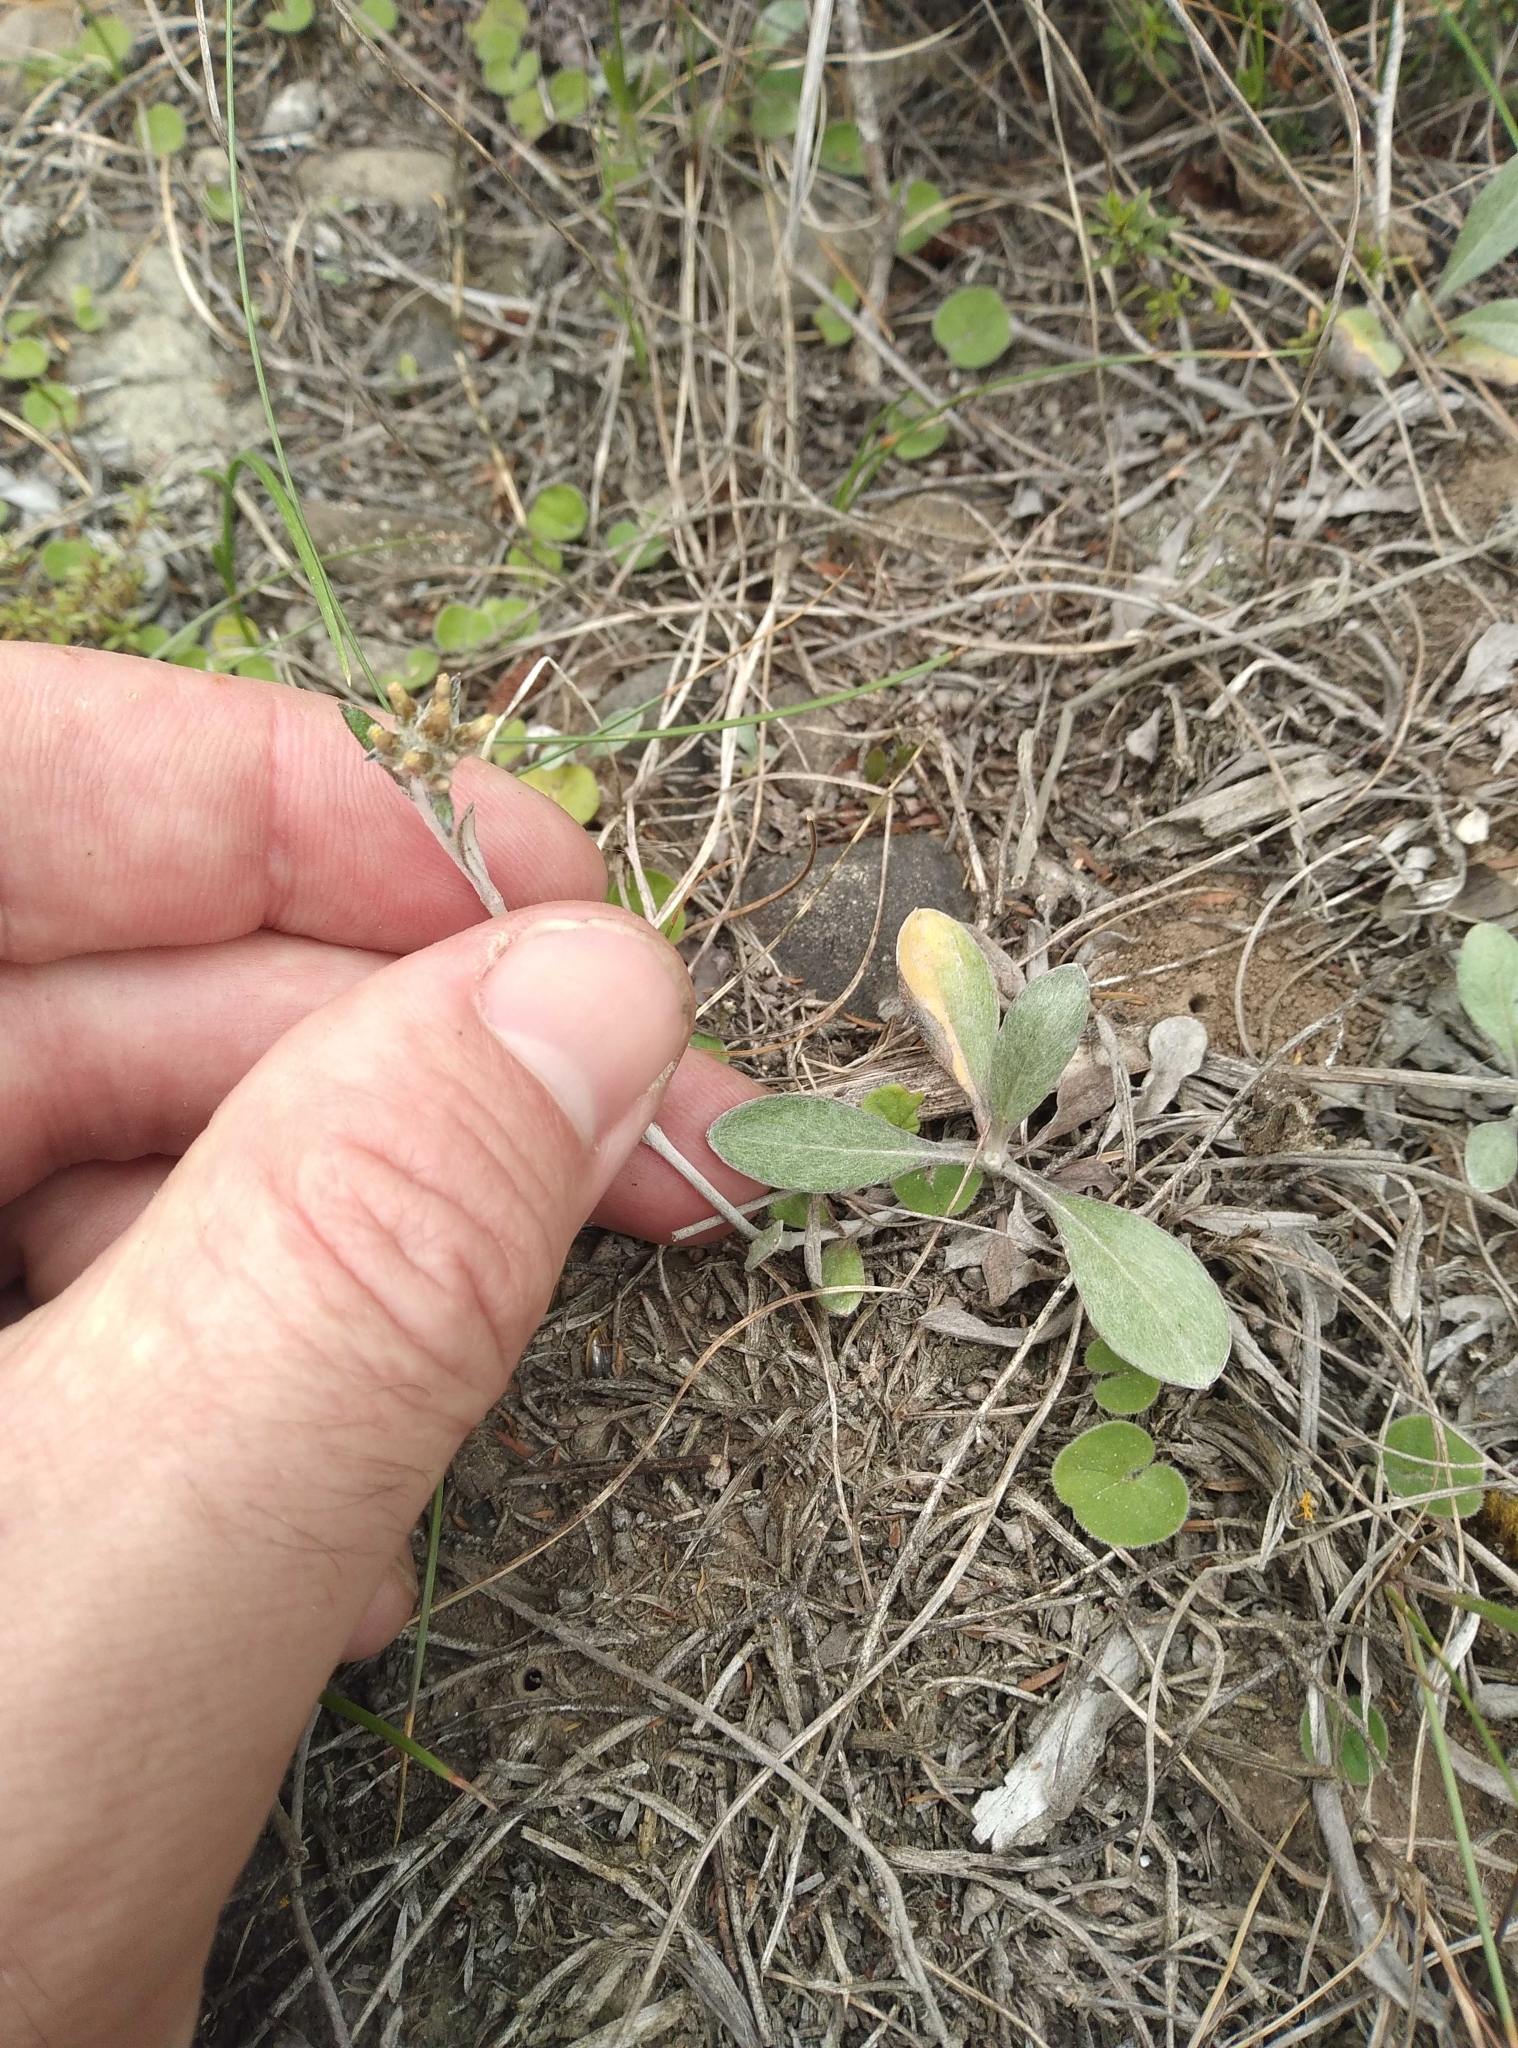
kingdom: Plantae
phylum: Tracheophyta
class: Magnoliopsida
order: Asterales
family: Asteraceae
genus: Euchiton
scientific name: Euchiton audax
